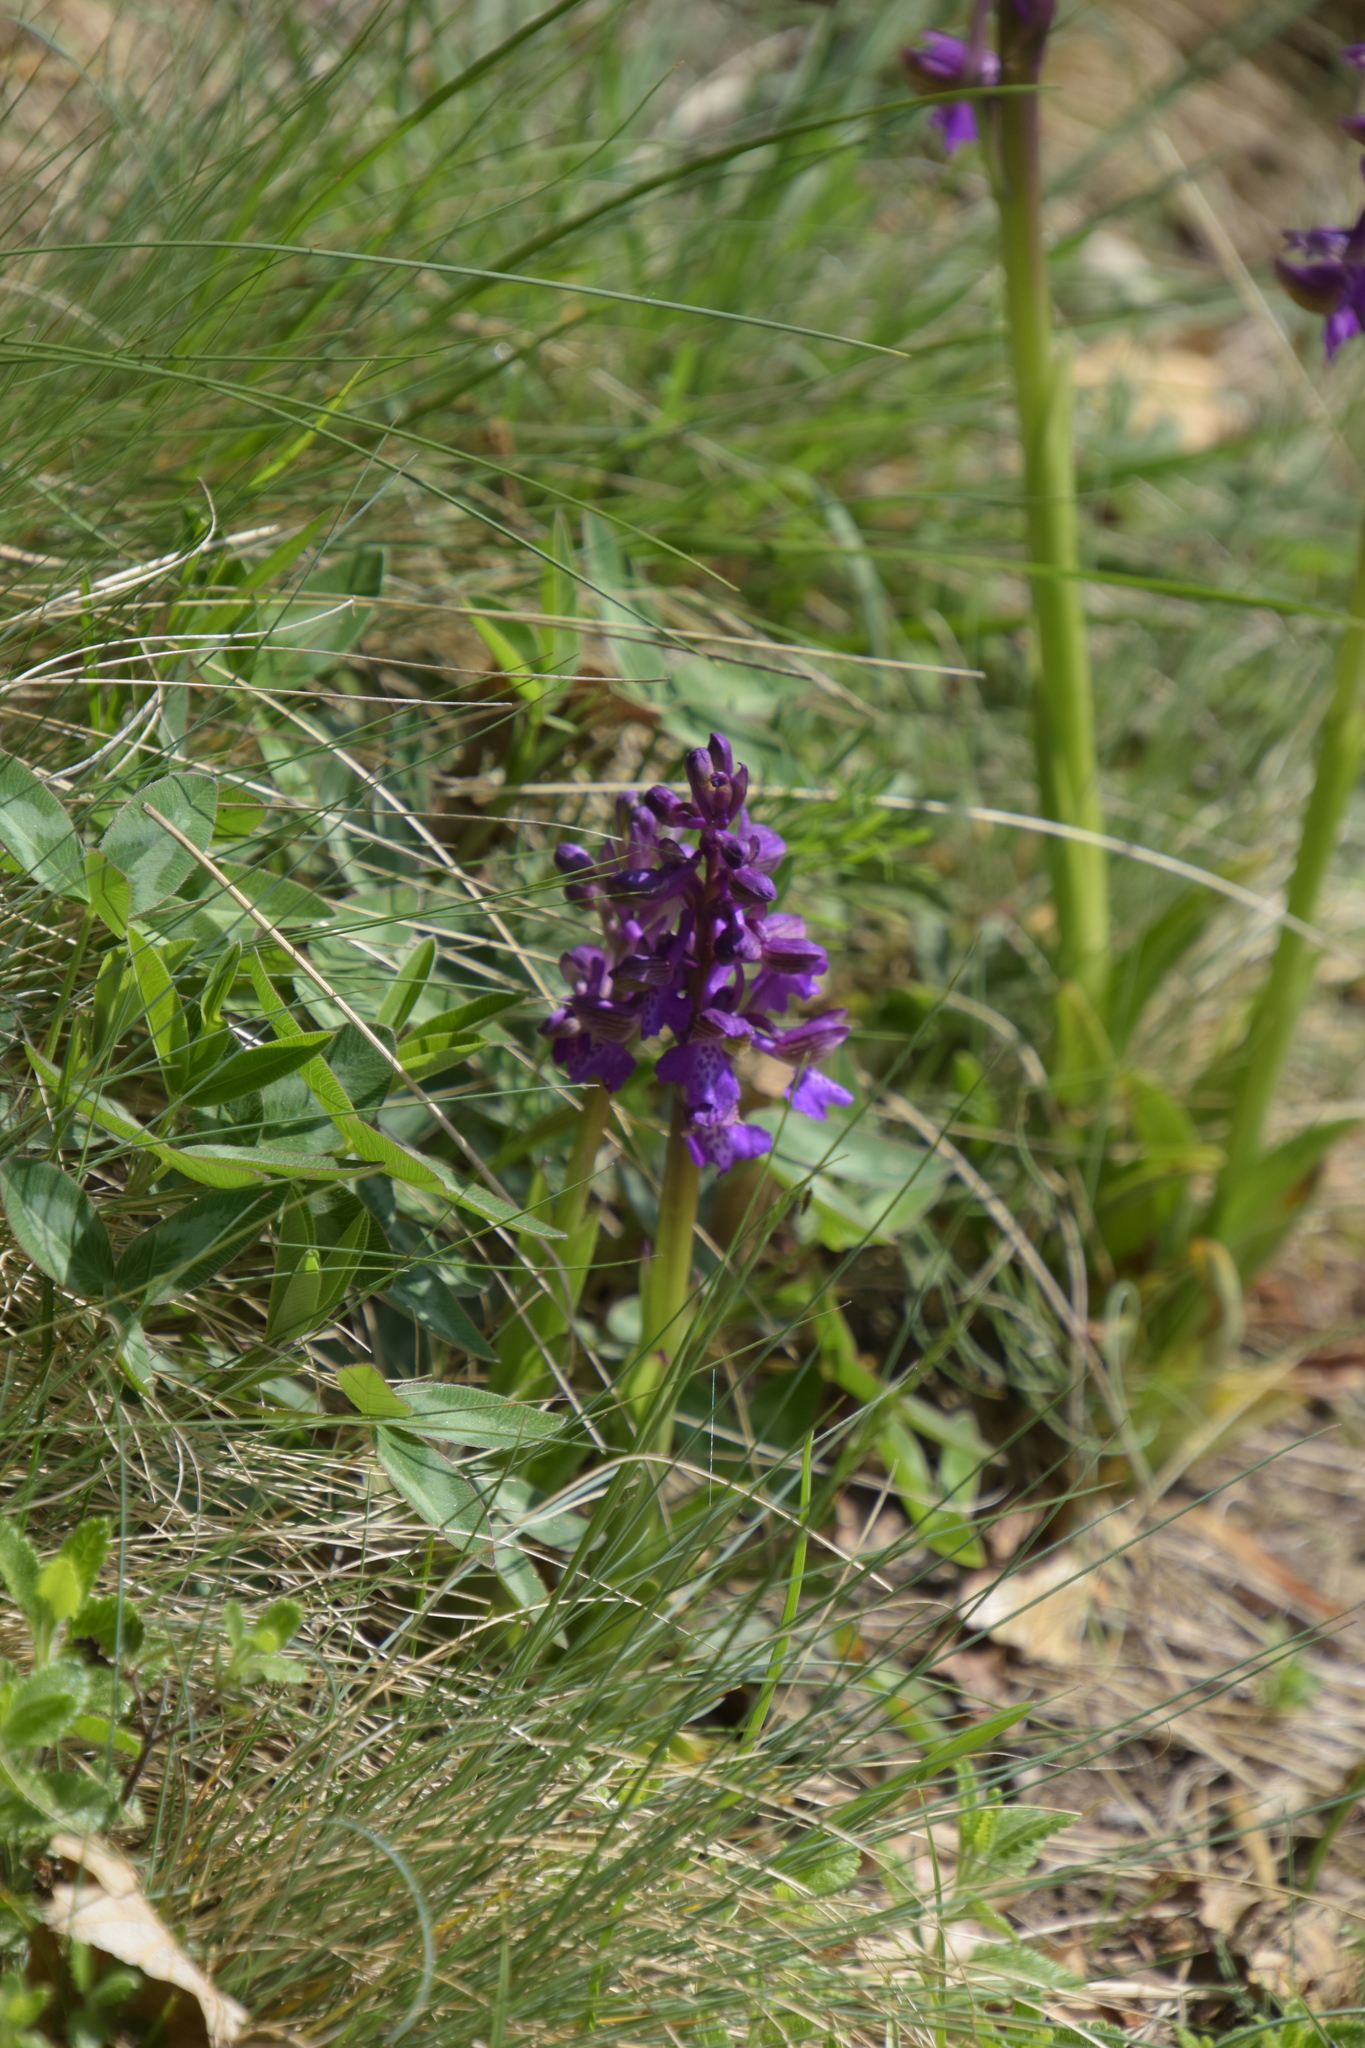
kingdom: Plantae
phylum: Tracheophyta
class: Liliopsida
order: Asparagales
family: Orchidaceae
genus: Anacamptis
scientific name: Anacamptis morio
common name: Green-winged orchid
